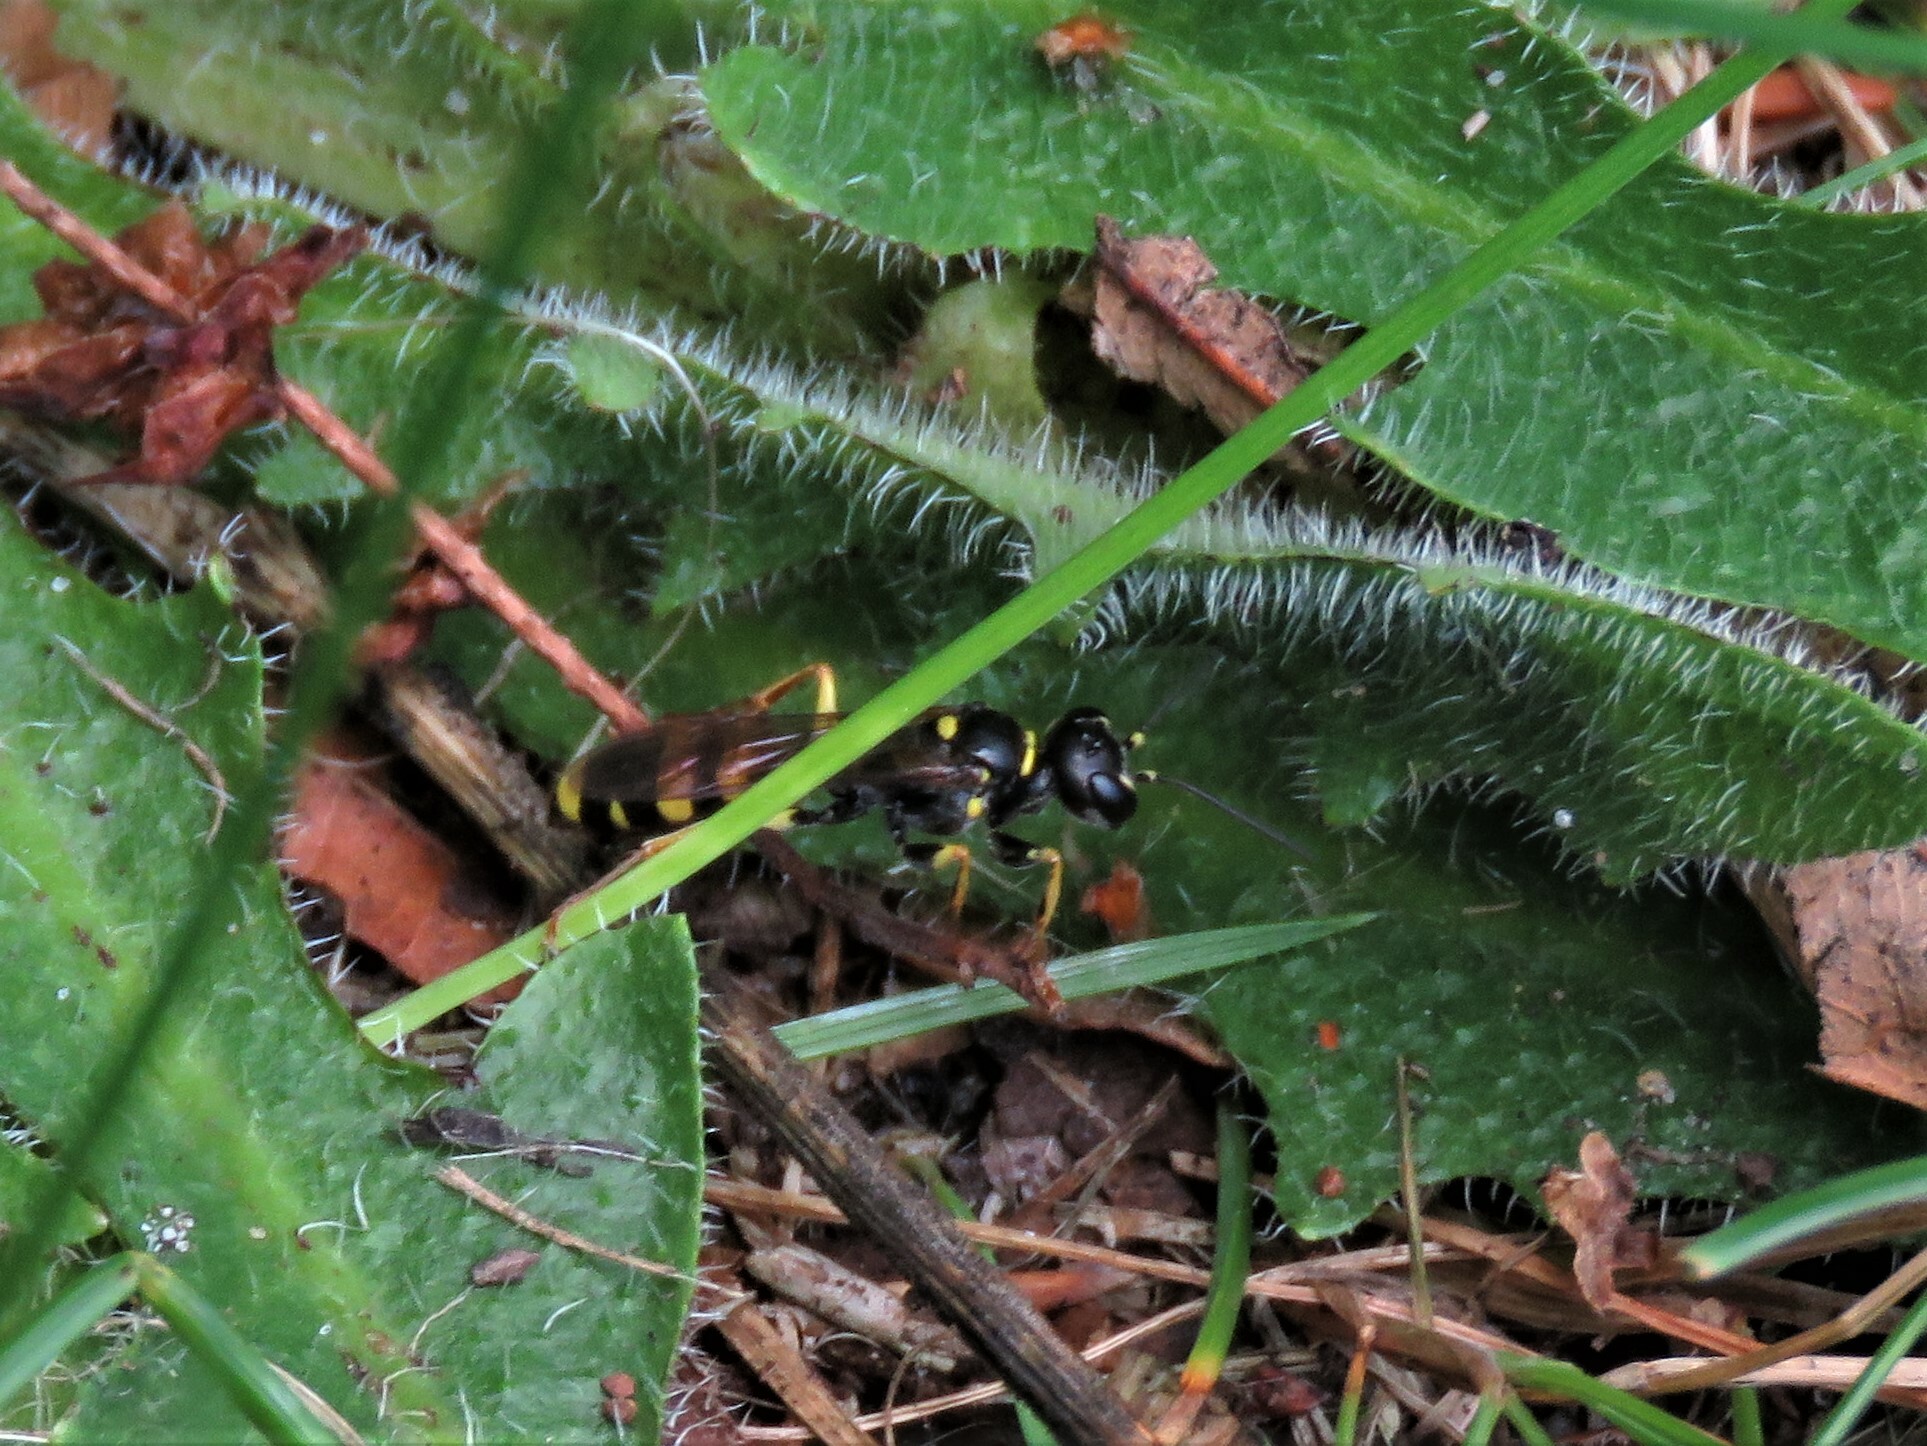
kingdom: Animalia
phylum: Arthropoda
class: Insecta
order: Hymenoptera
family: Crabronidae
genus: Mellinus
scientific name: Mellinus arvensis
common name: Field digger wasp
